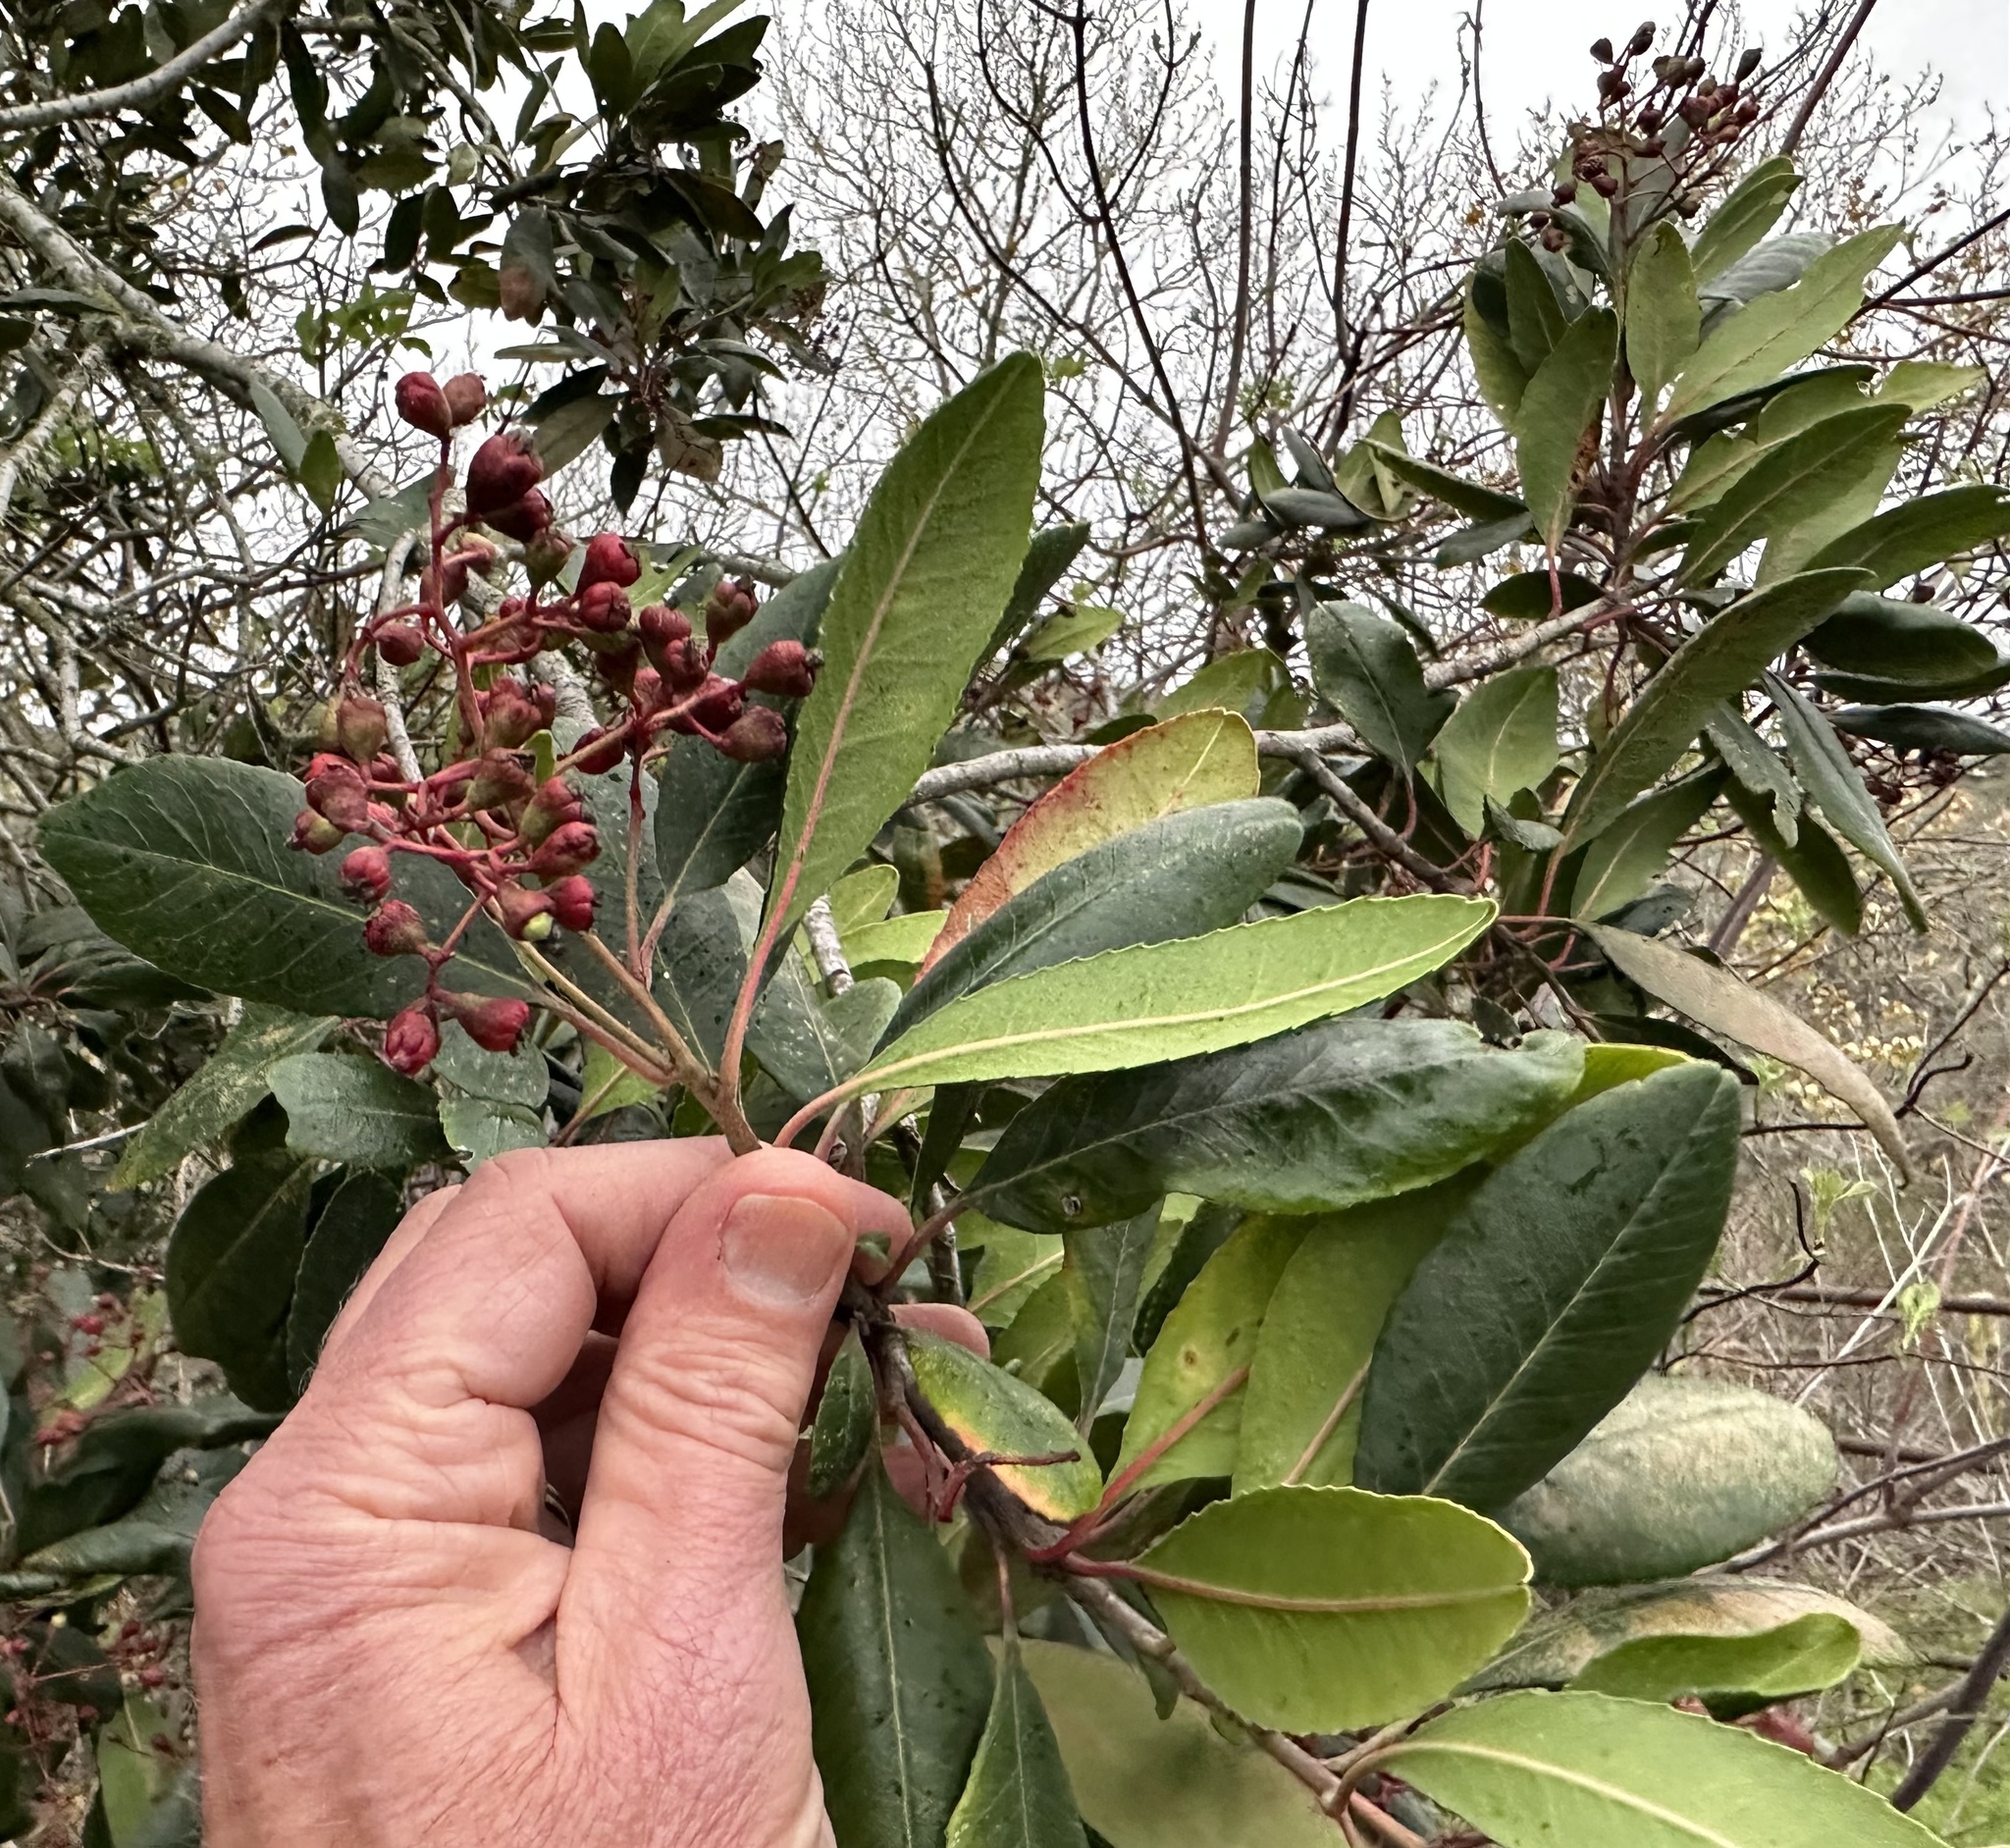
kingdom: Plantae
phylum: Tracheophyta
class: Magnoliopsida
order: Rosales
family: Rosaceae
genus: Heteromeles
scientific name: Heteromeles arbutifolia
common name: California-holly
